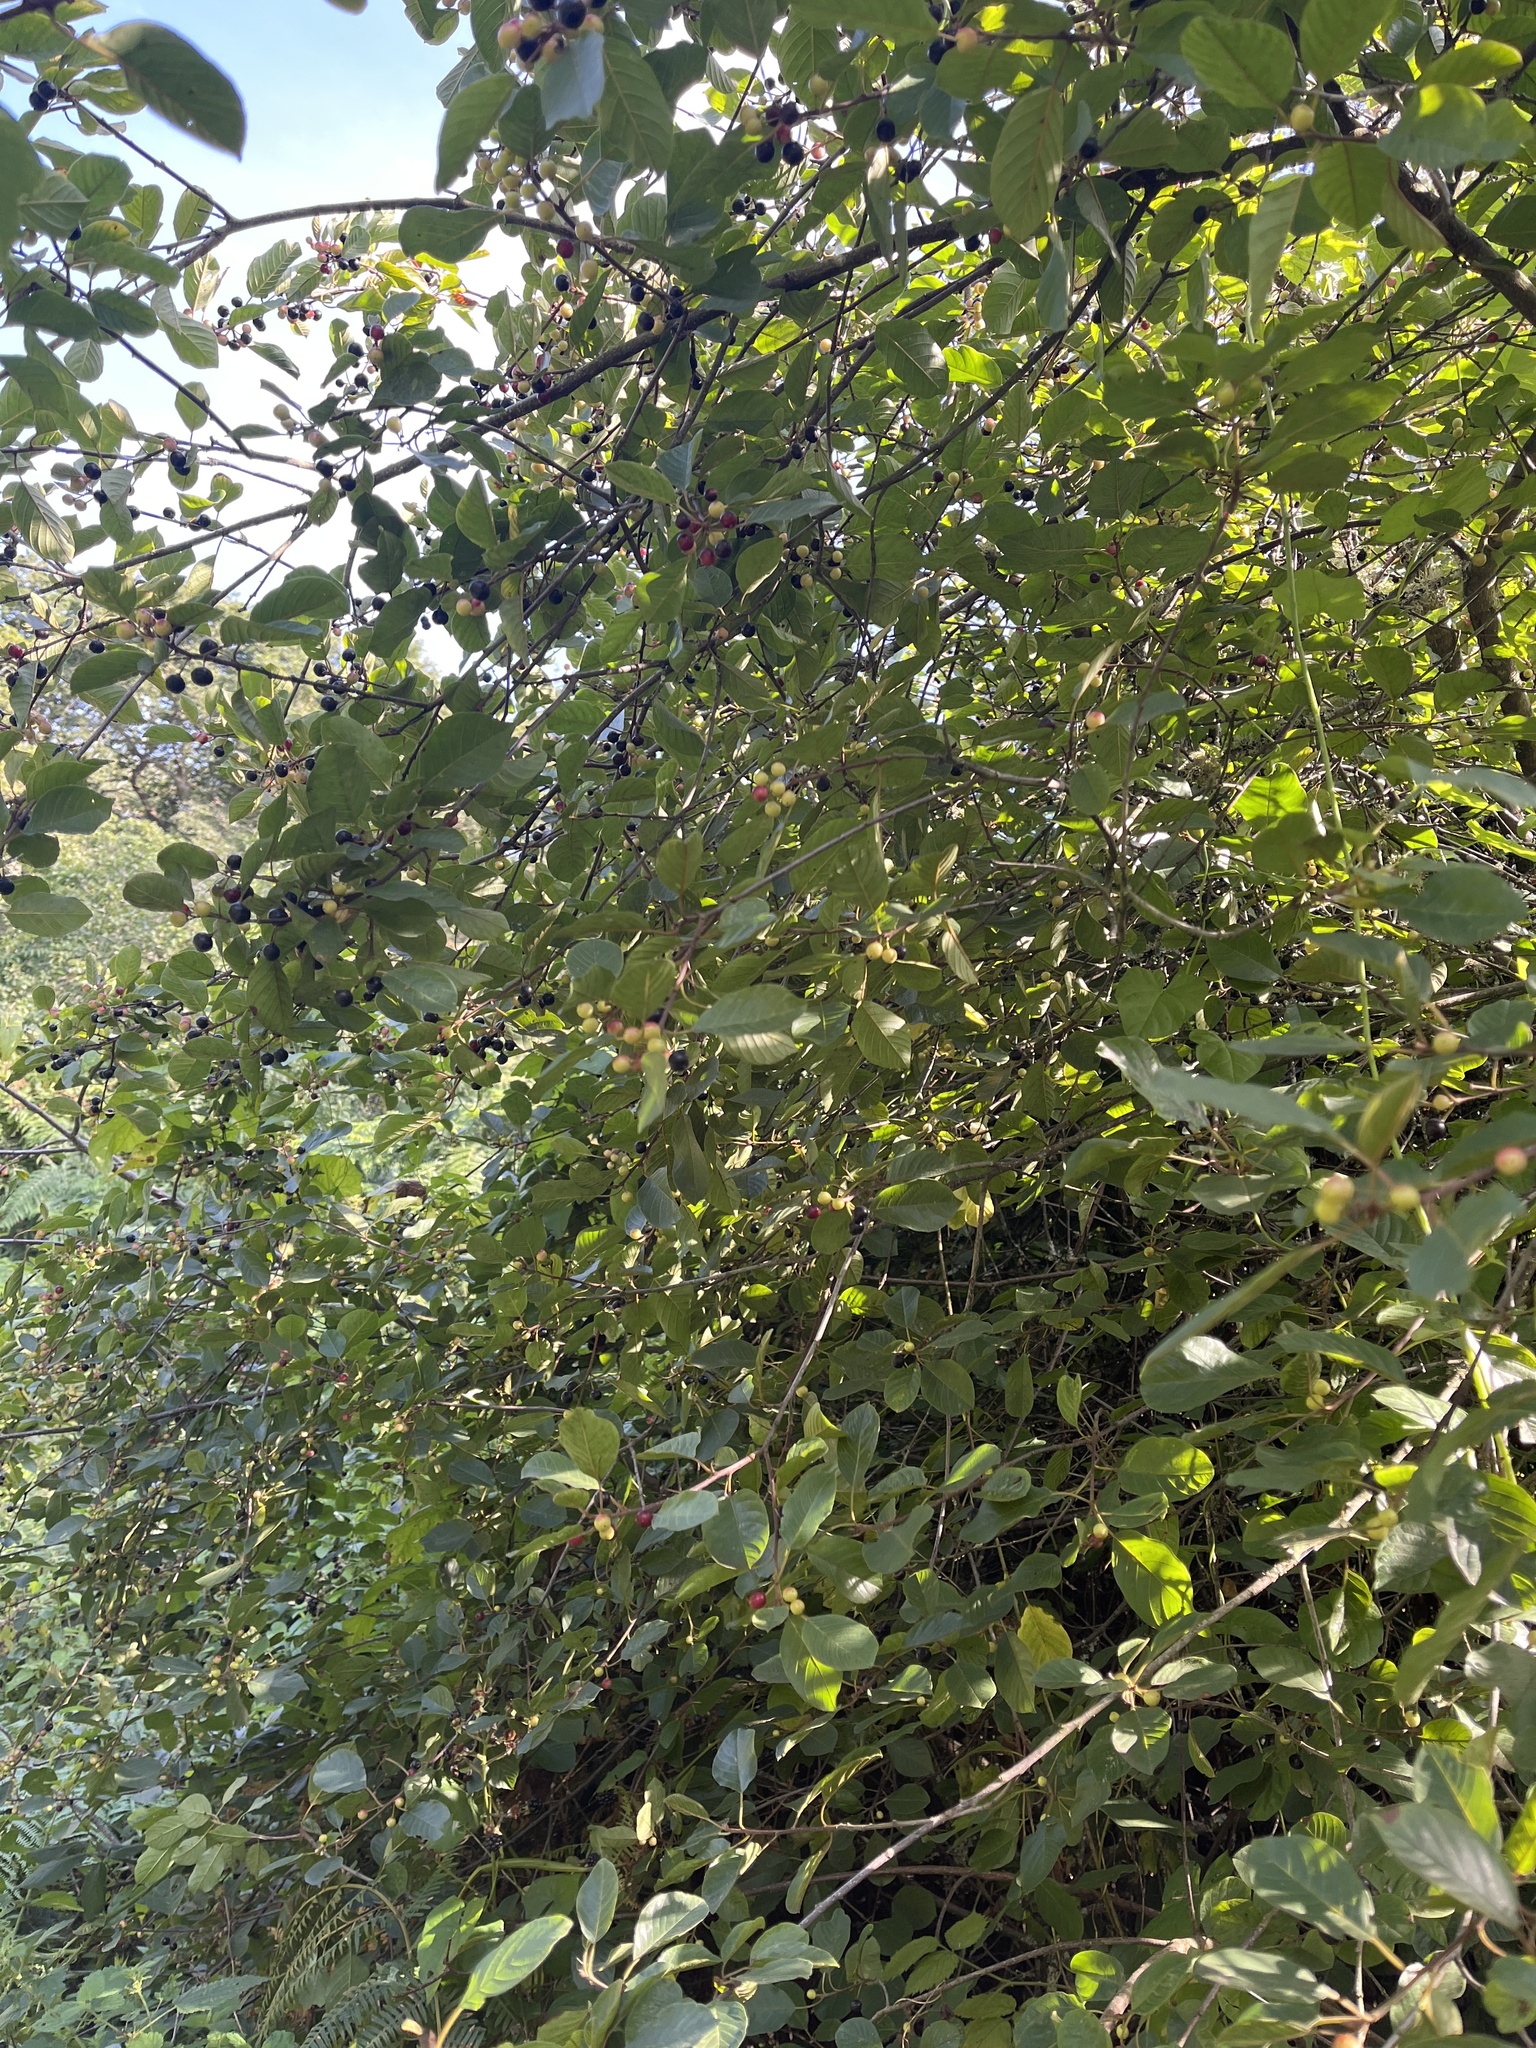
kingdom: Plantae
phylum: Tracheophyta
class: Magnoliopsida
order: Rosales
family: Rhamnaceae
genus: Frangula
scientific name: Frangula alnus
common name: Alder buckthorn
